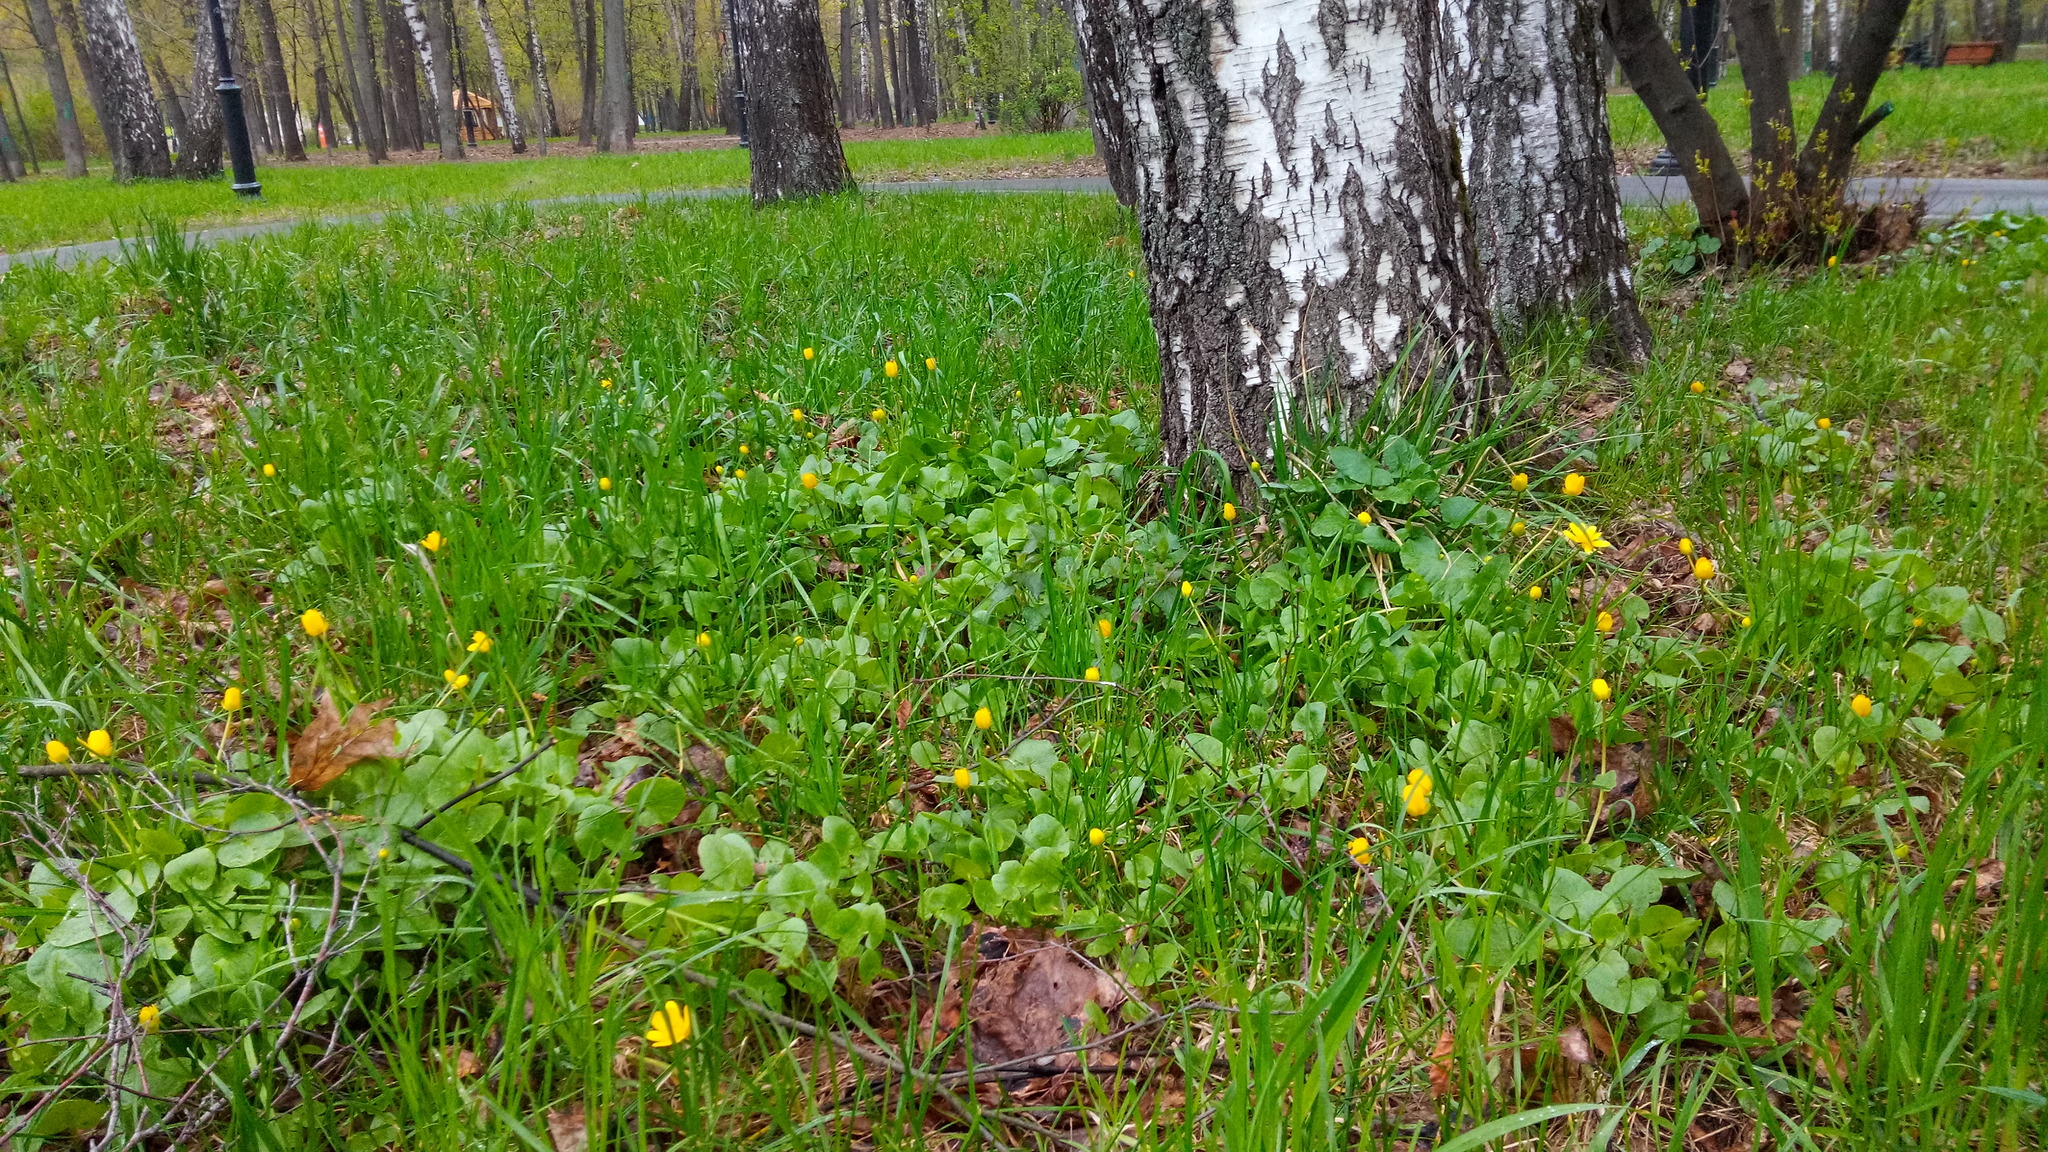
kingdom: Plantae
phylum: Tracheophyta
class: Magnoliopsida
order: Ranunculales
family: Ranunculaceae
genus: Ficaria
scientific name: Ficaria verna
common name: Lesser celandine
